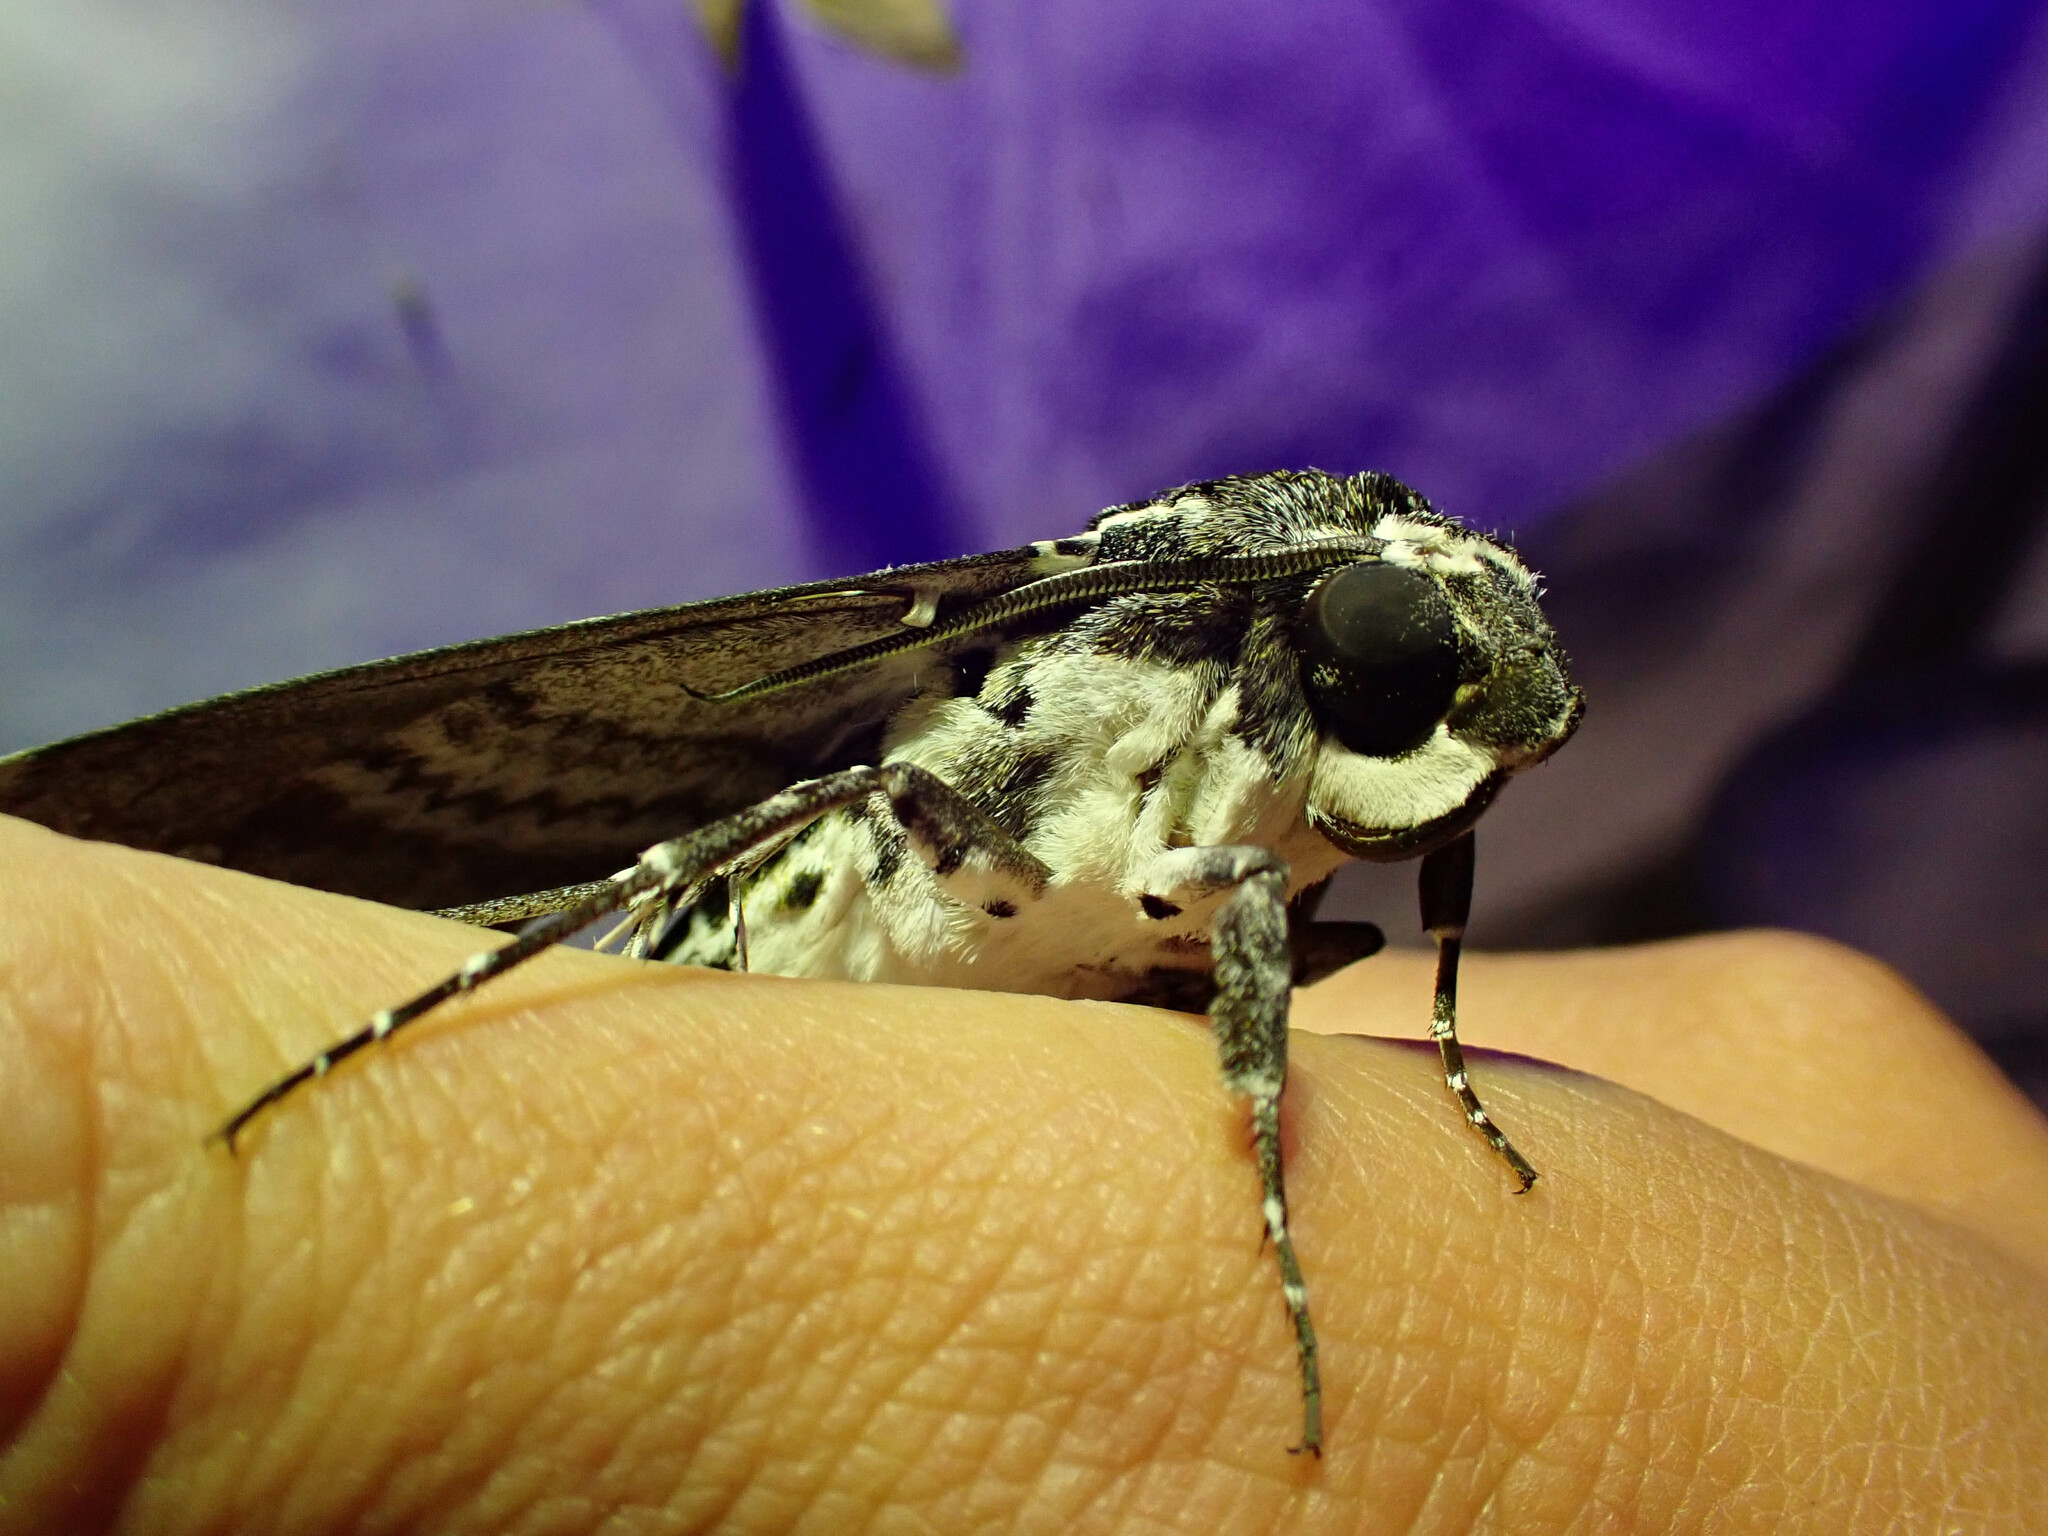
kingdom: Animalia
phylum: Arthropoda
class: Insecta
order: Lepidoptera
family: Sphingidae
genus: Manduca
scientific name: Manduca rustica
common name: Rustic sphinx
